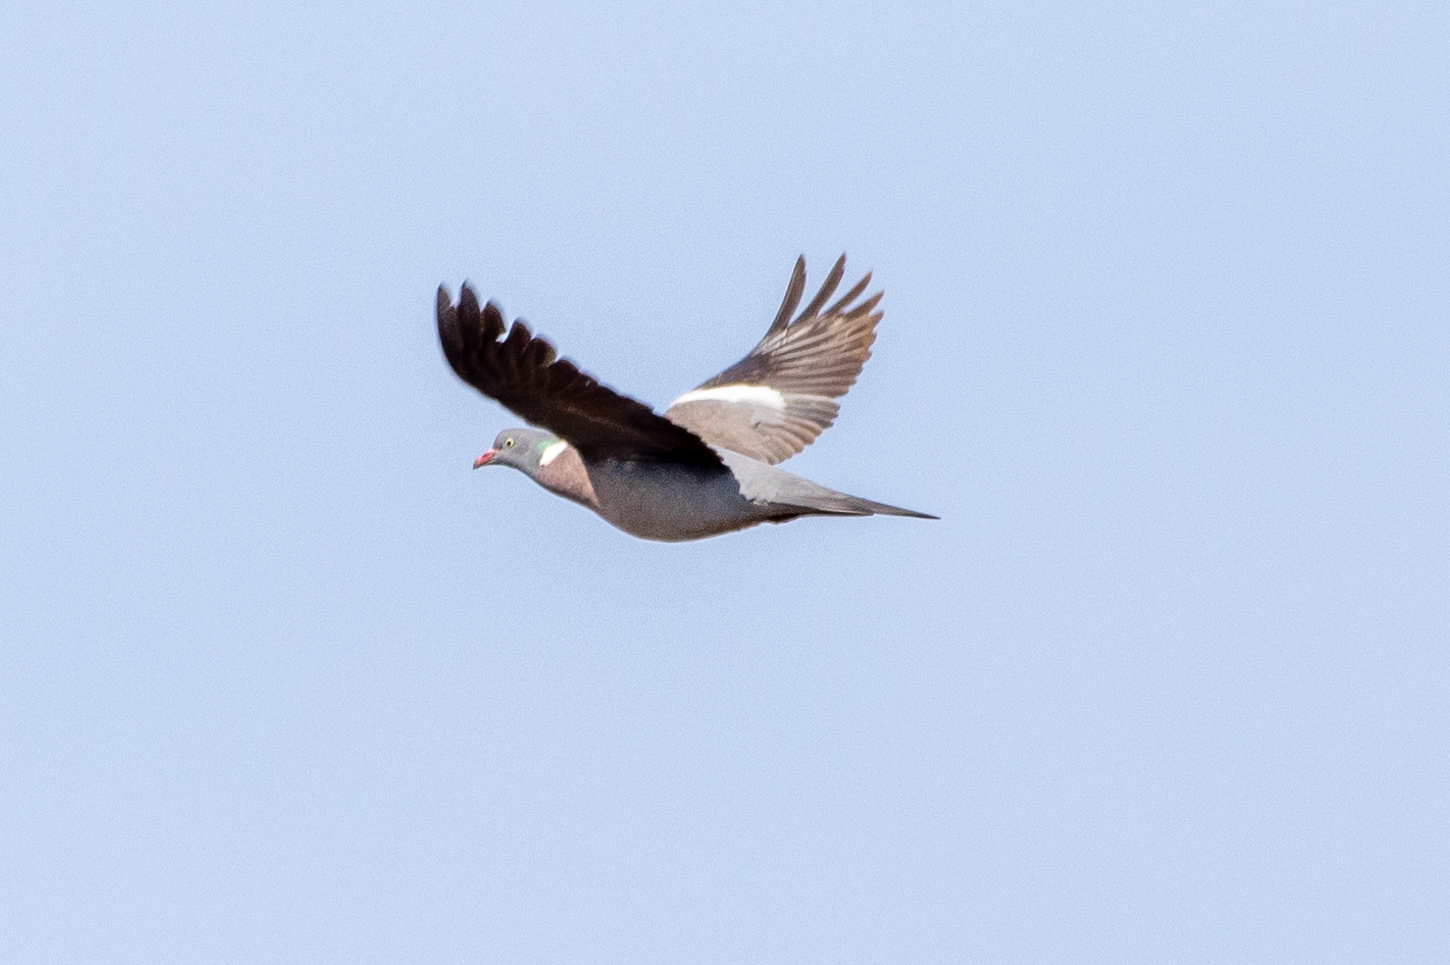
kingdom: Animalia
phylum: Chordata
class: Aves
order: Columbiformes
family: Columbidae
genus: Columba
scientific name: Columba palumbus
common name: Common wood pigeon
